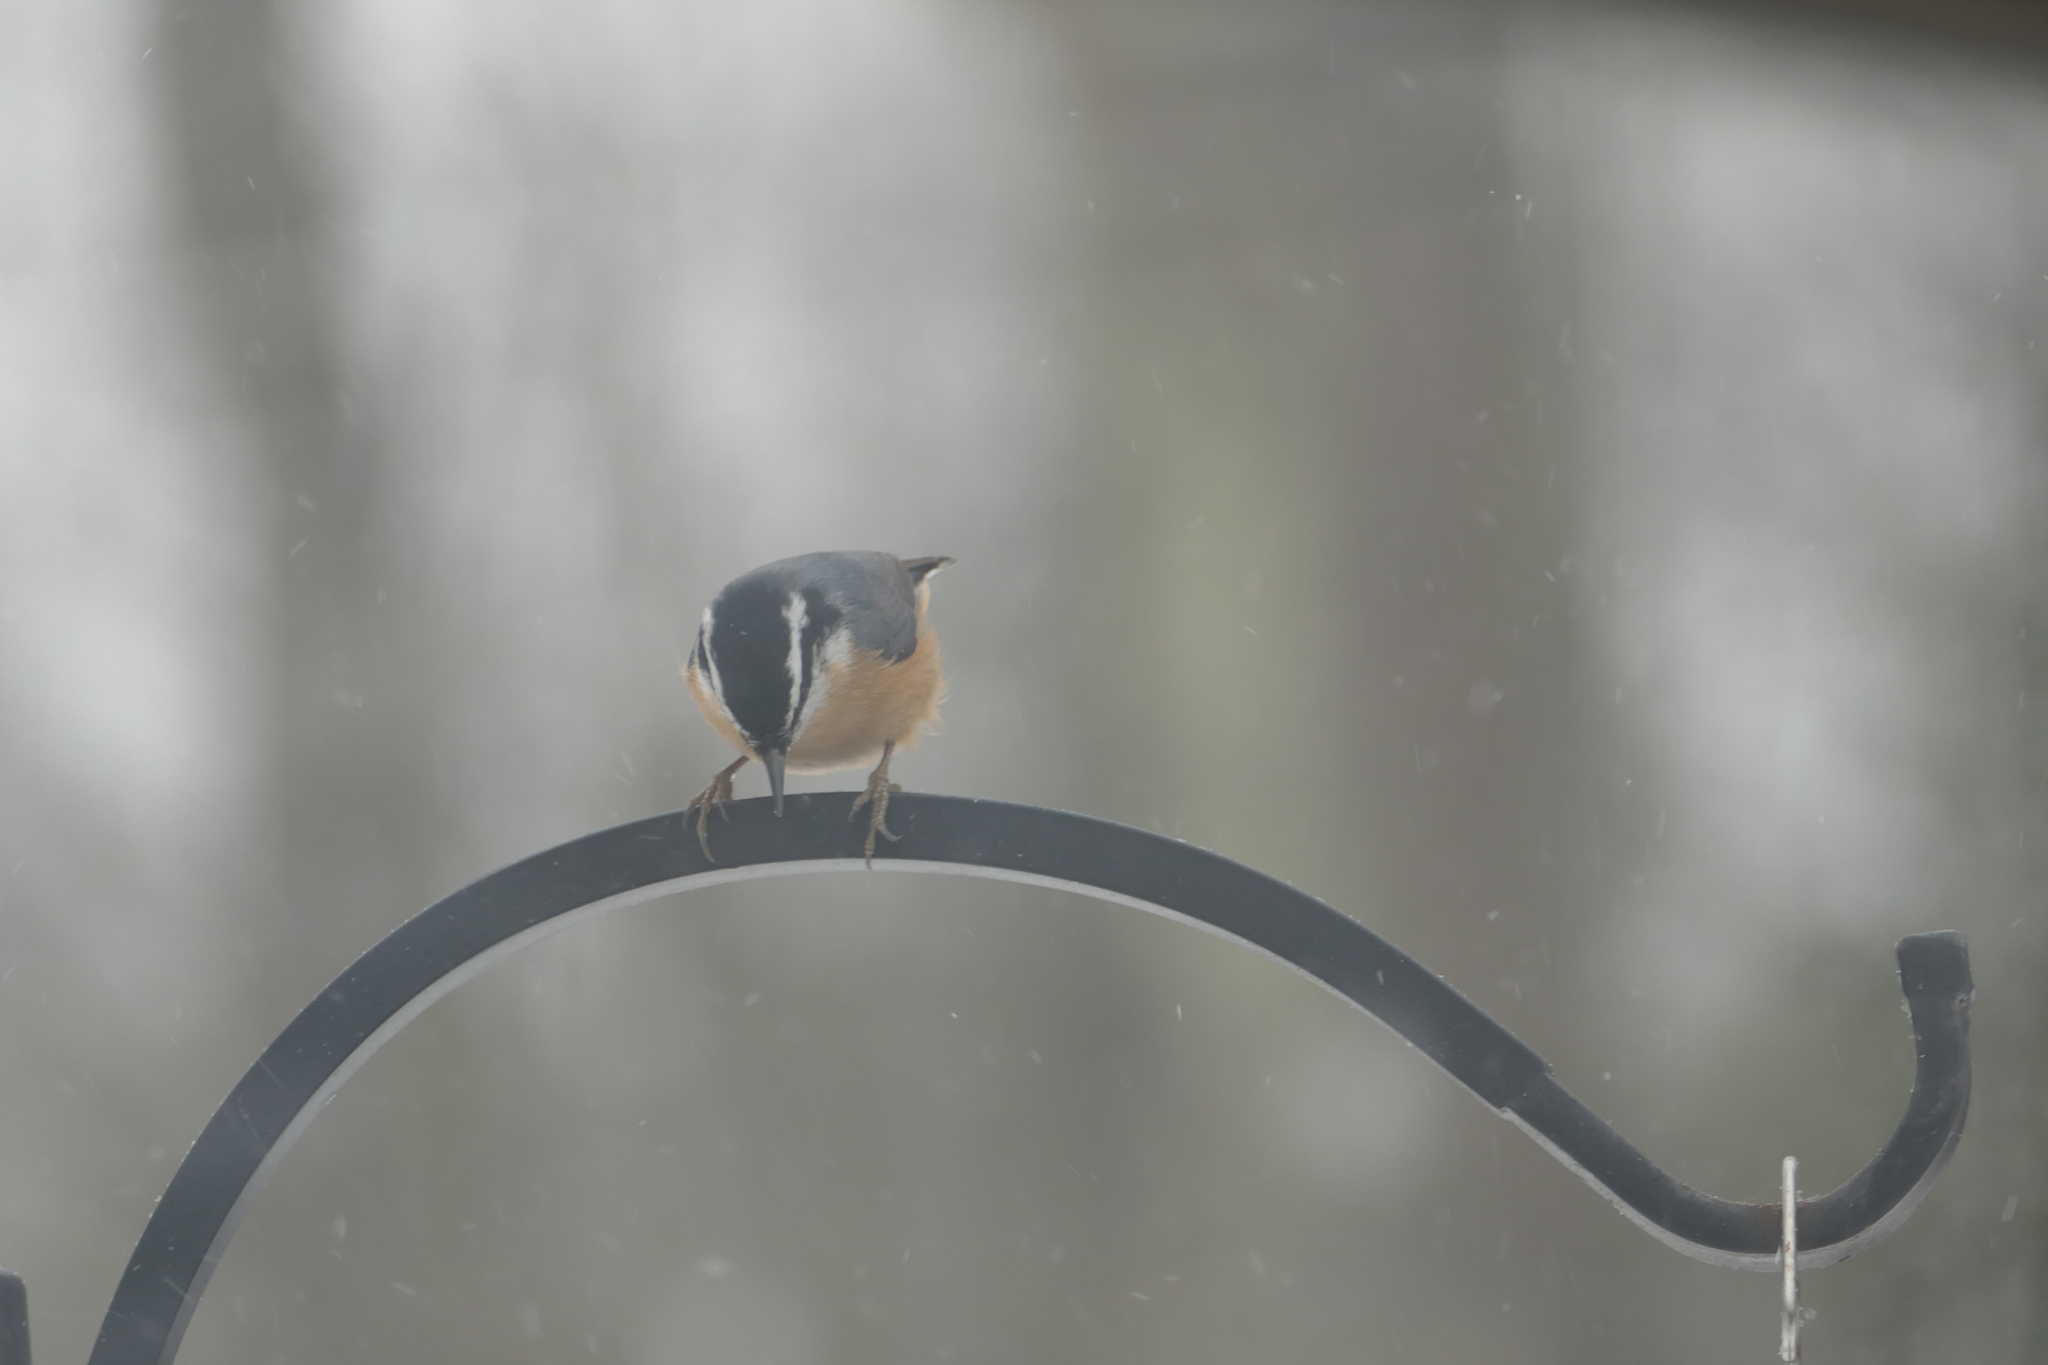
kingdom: Animalia
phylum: Chordata
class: Aves
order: Passeriformes
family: Sittidae
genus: Sitta
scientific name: Sitta canadensis
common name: Red-breasted nuthatch
